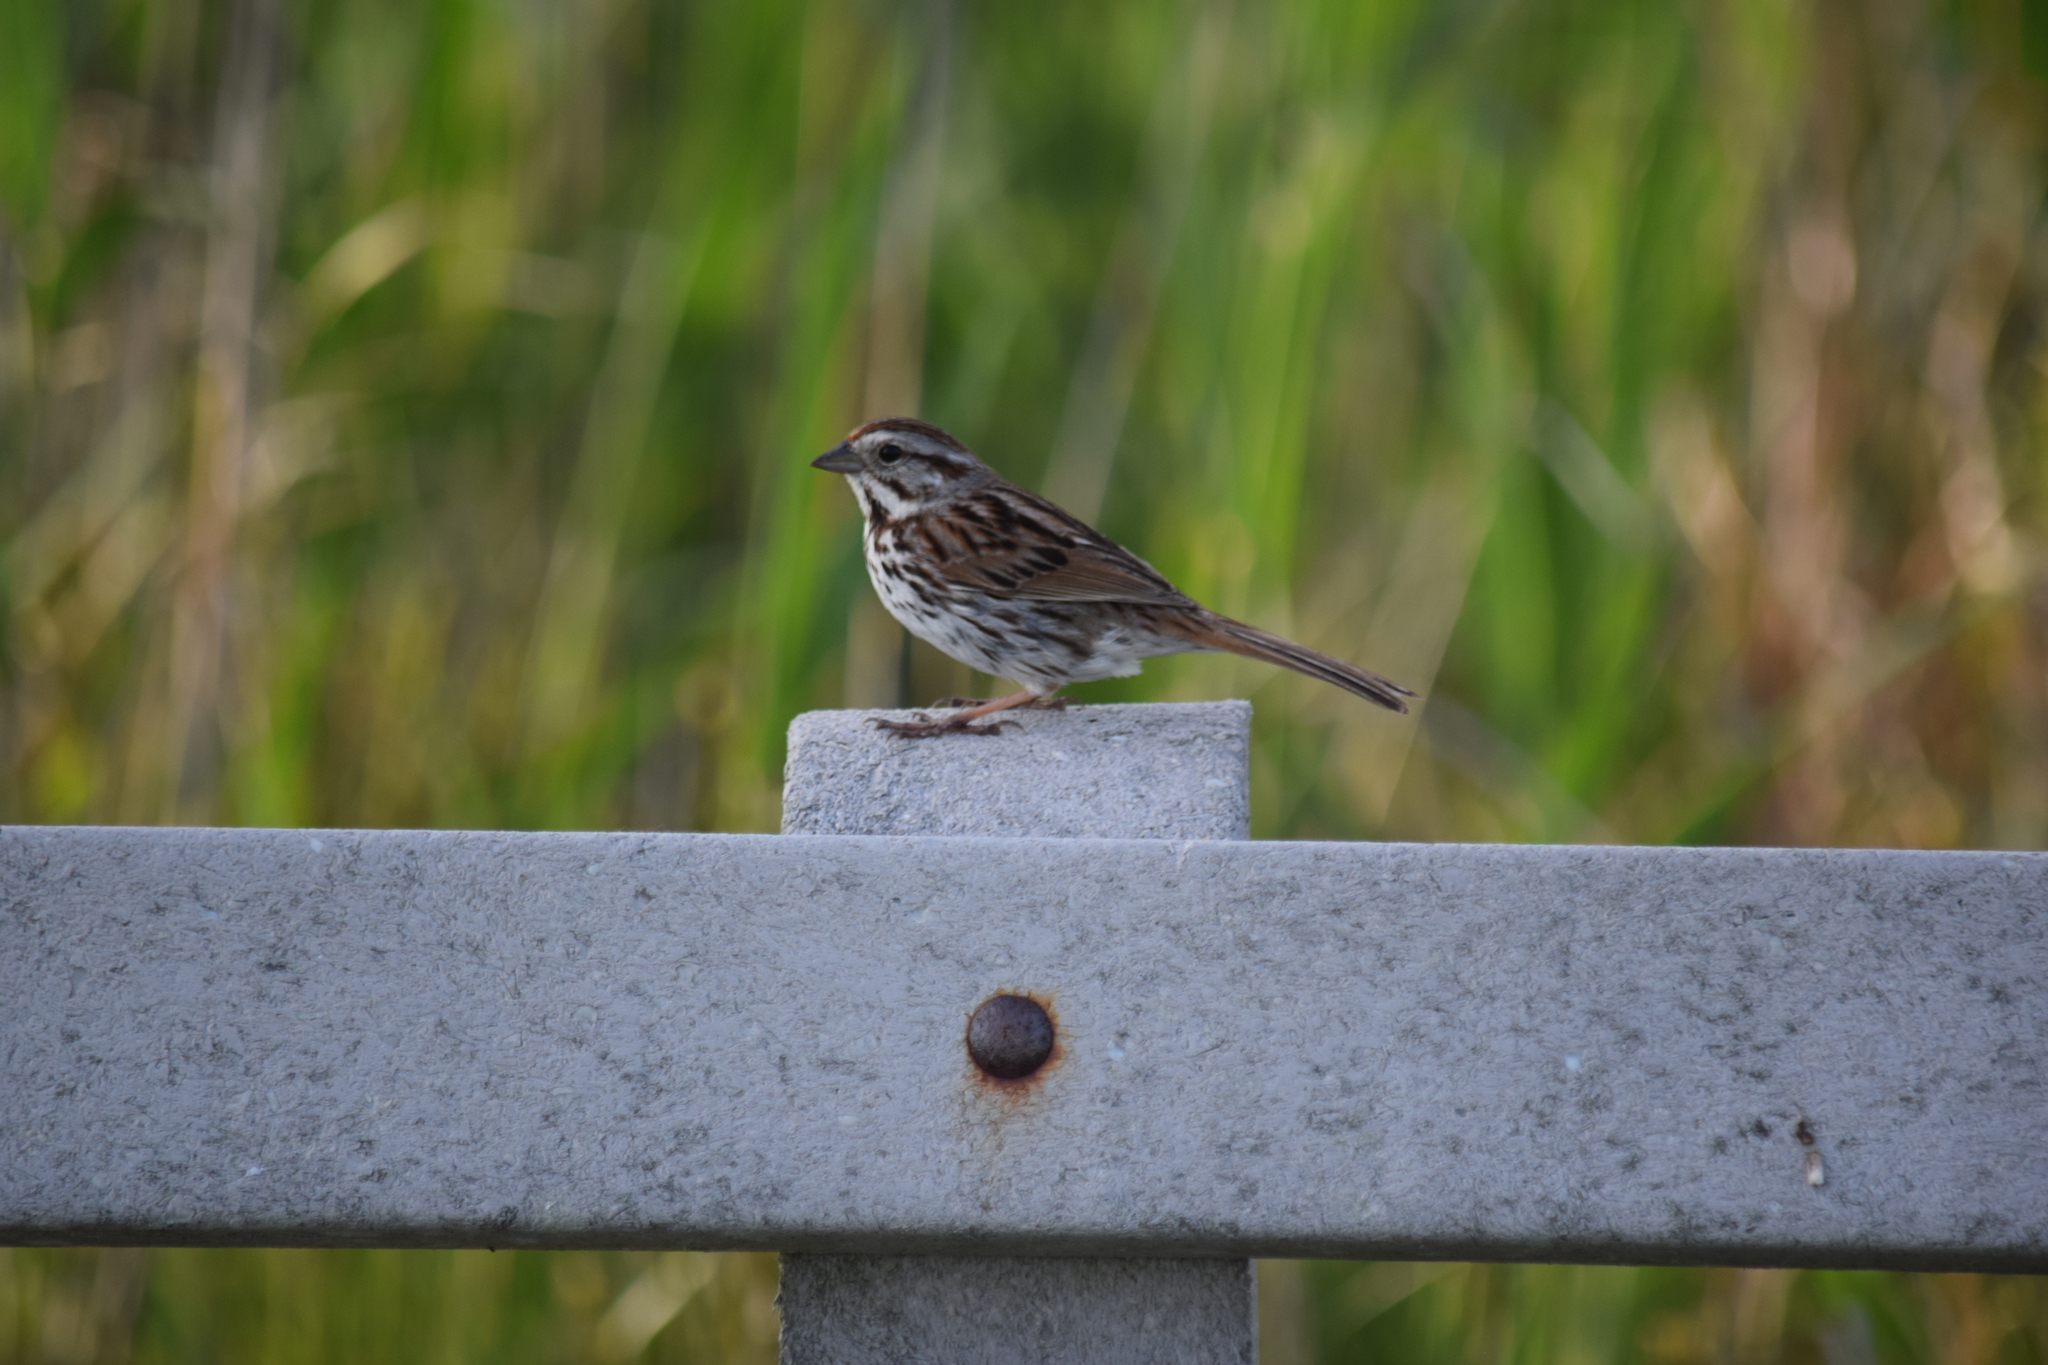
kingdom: Animalia
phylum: Chordata
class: Aves
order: Passeriformes
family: Passerellidae
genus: Melospiza
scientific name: Melospiza melodia
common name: Song sparrow
